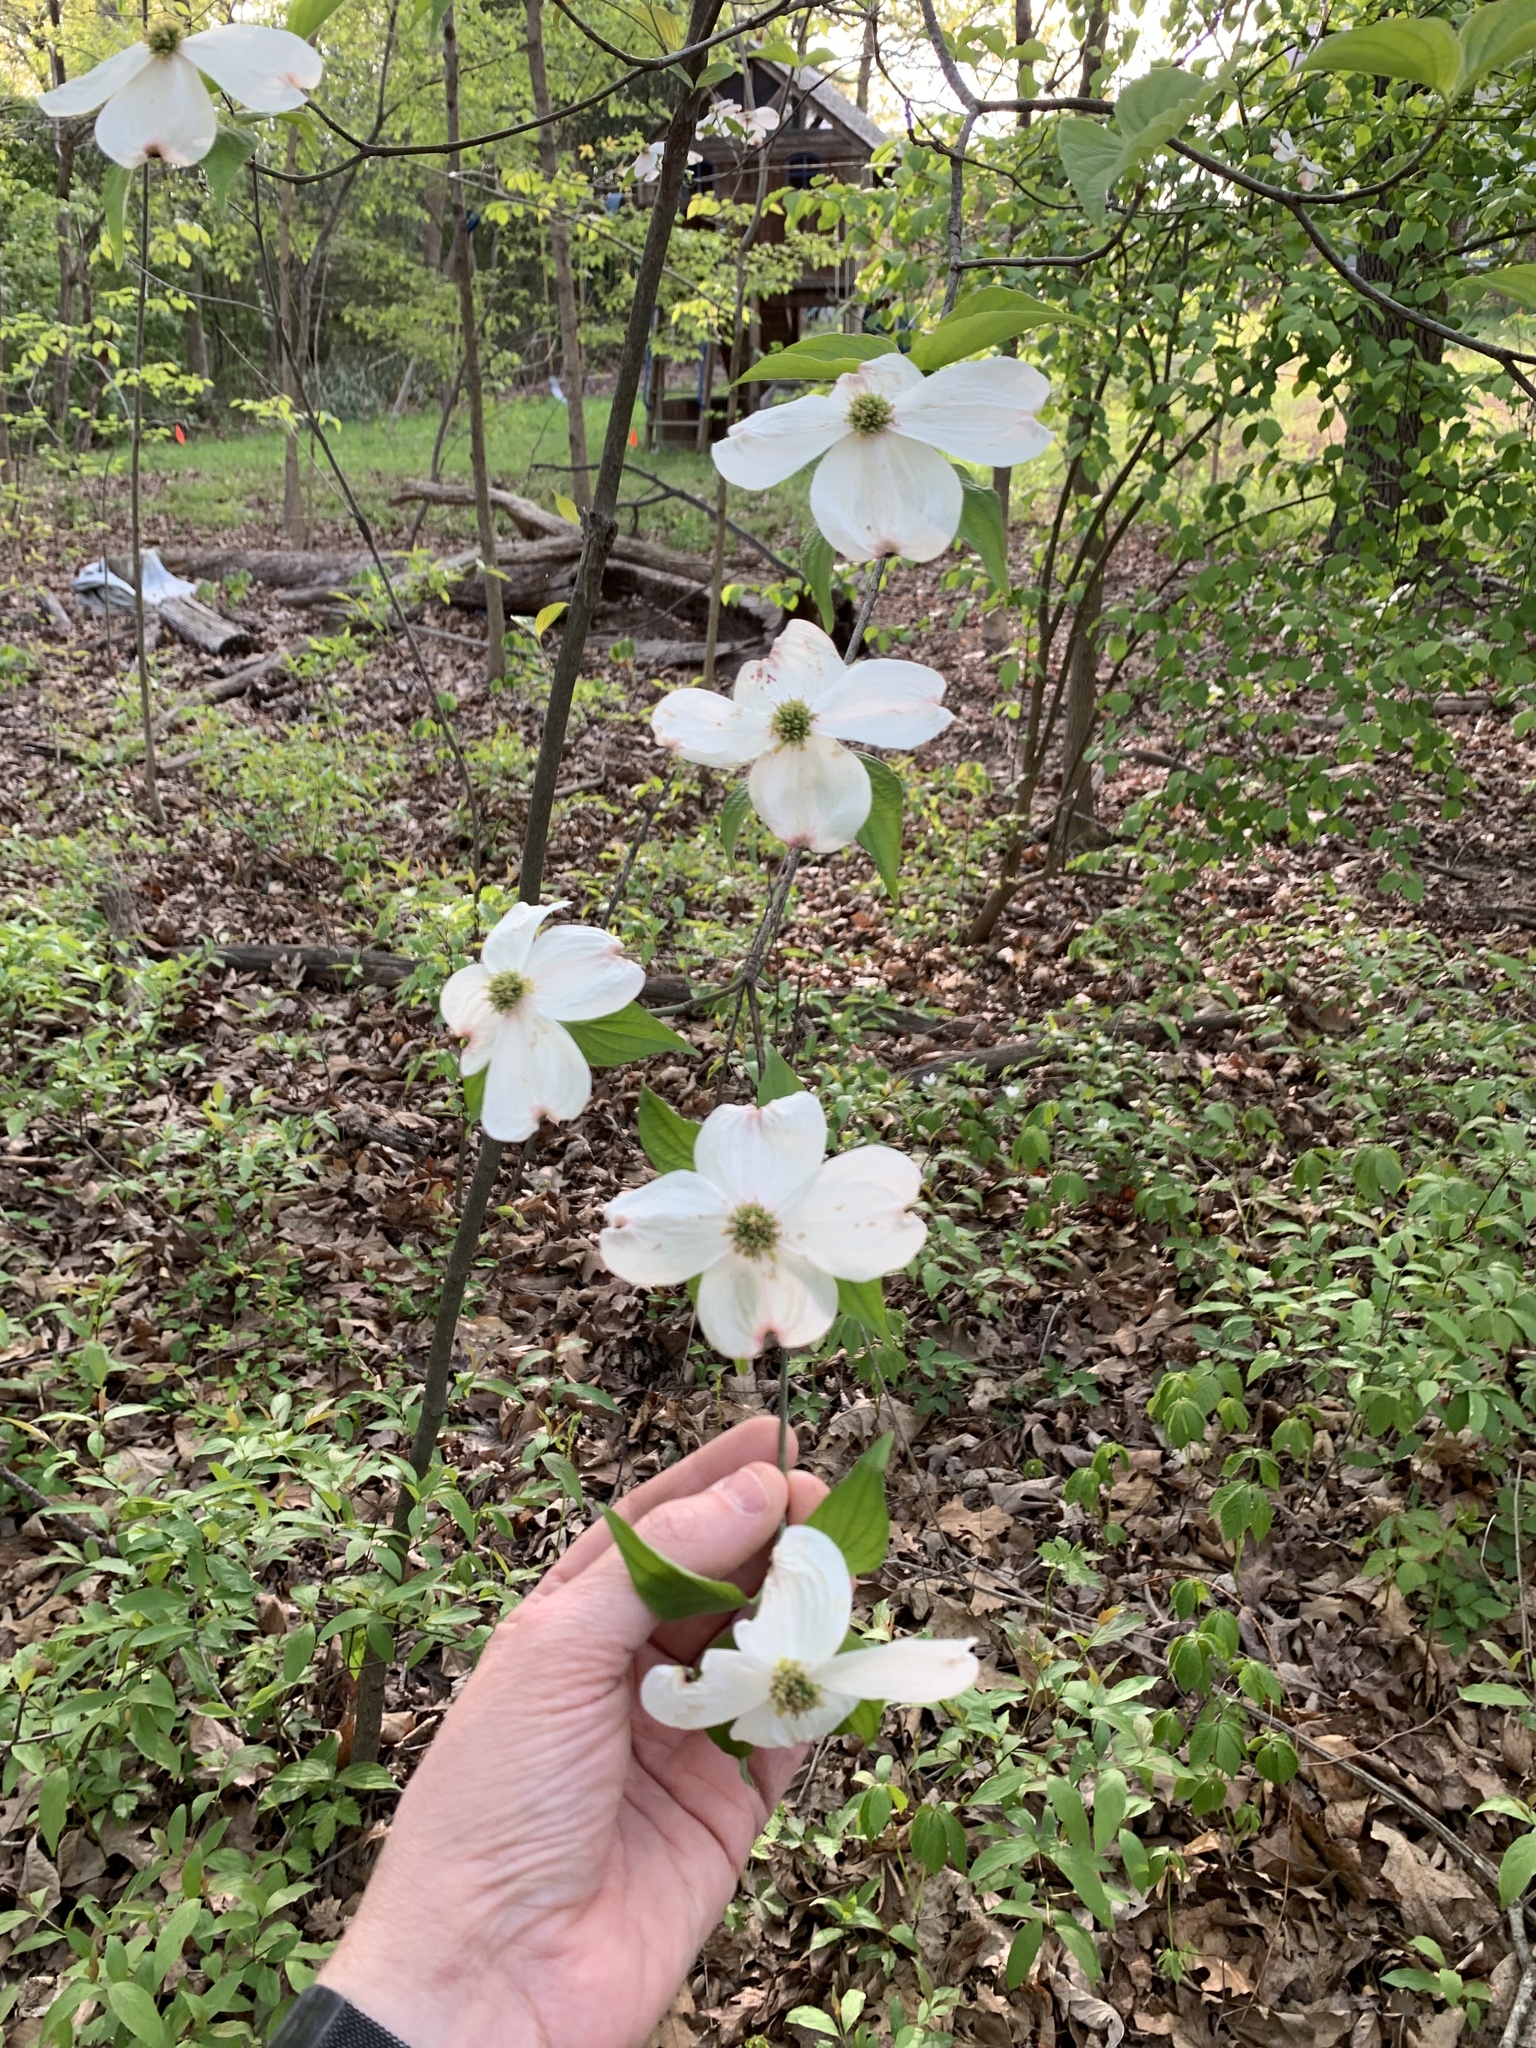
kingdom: Plantae
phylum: Tracheophyta
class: Magnoliopsida
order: Cornales
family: Cornaceae
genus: Cornus
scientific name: Cornus florida
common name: Flowering dogwood
